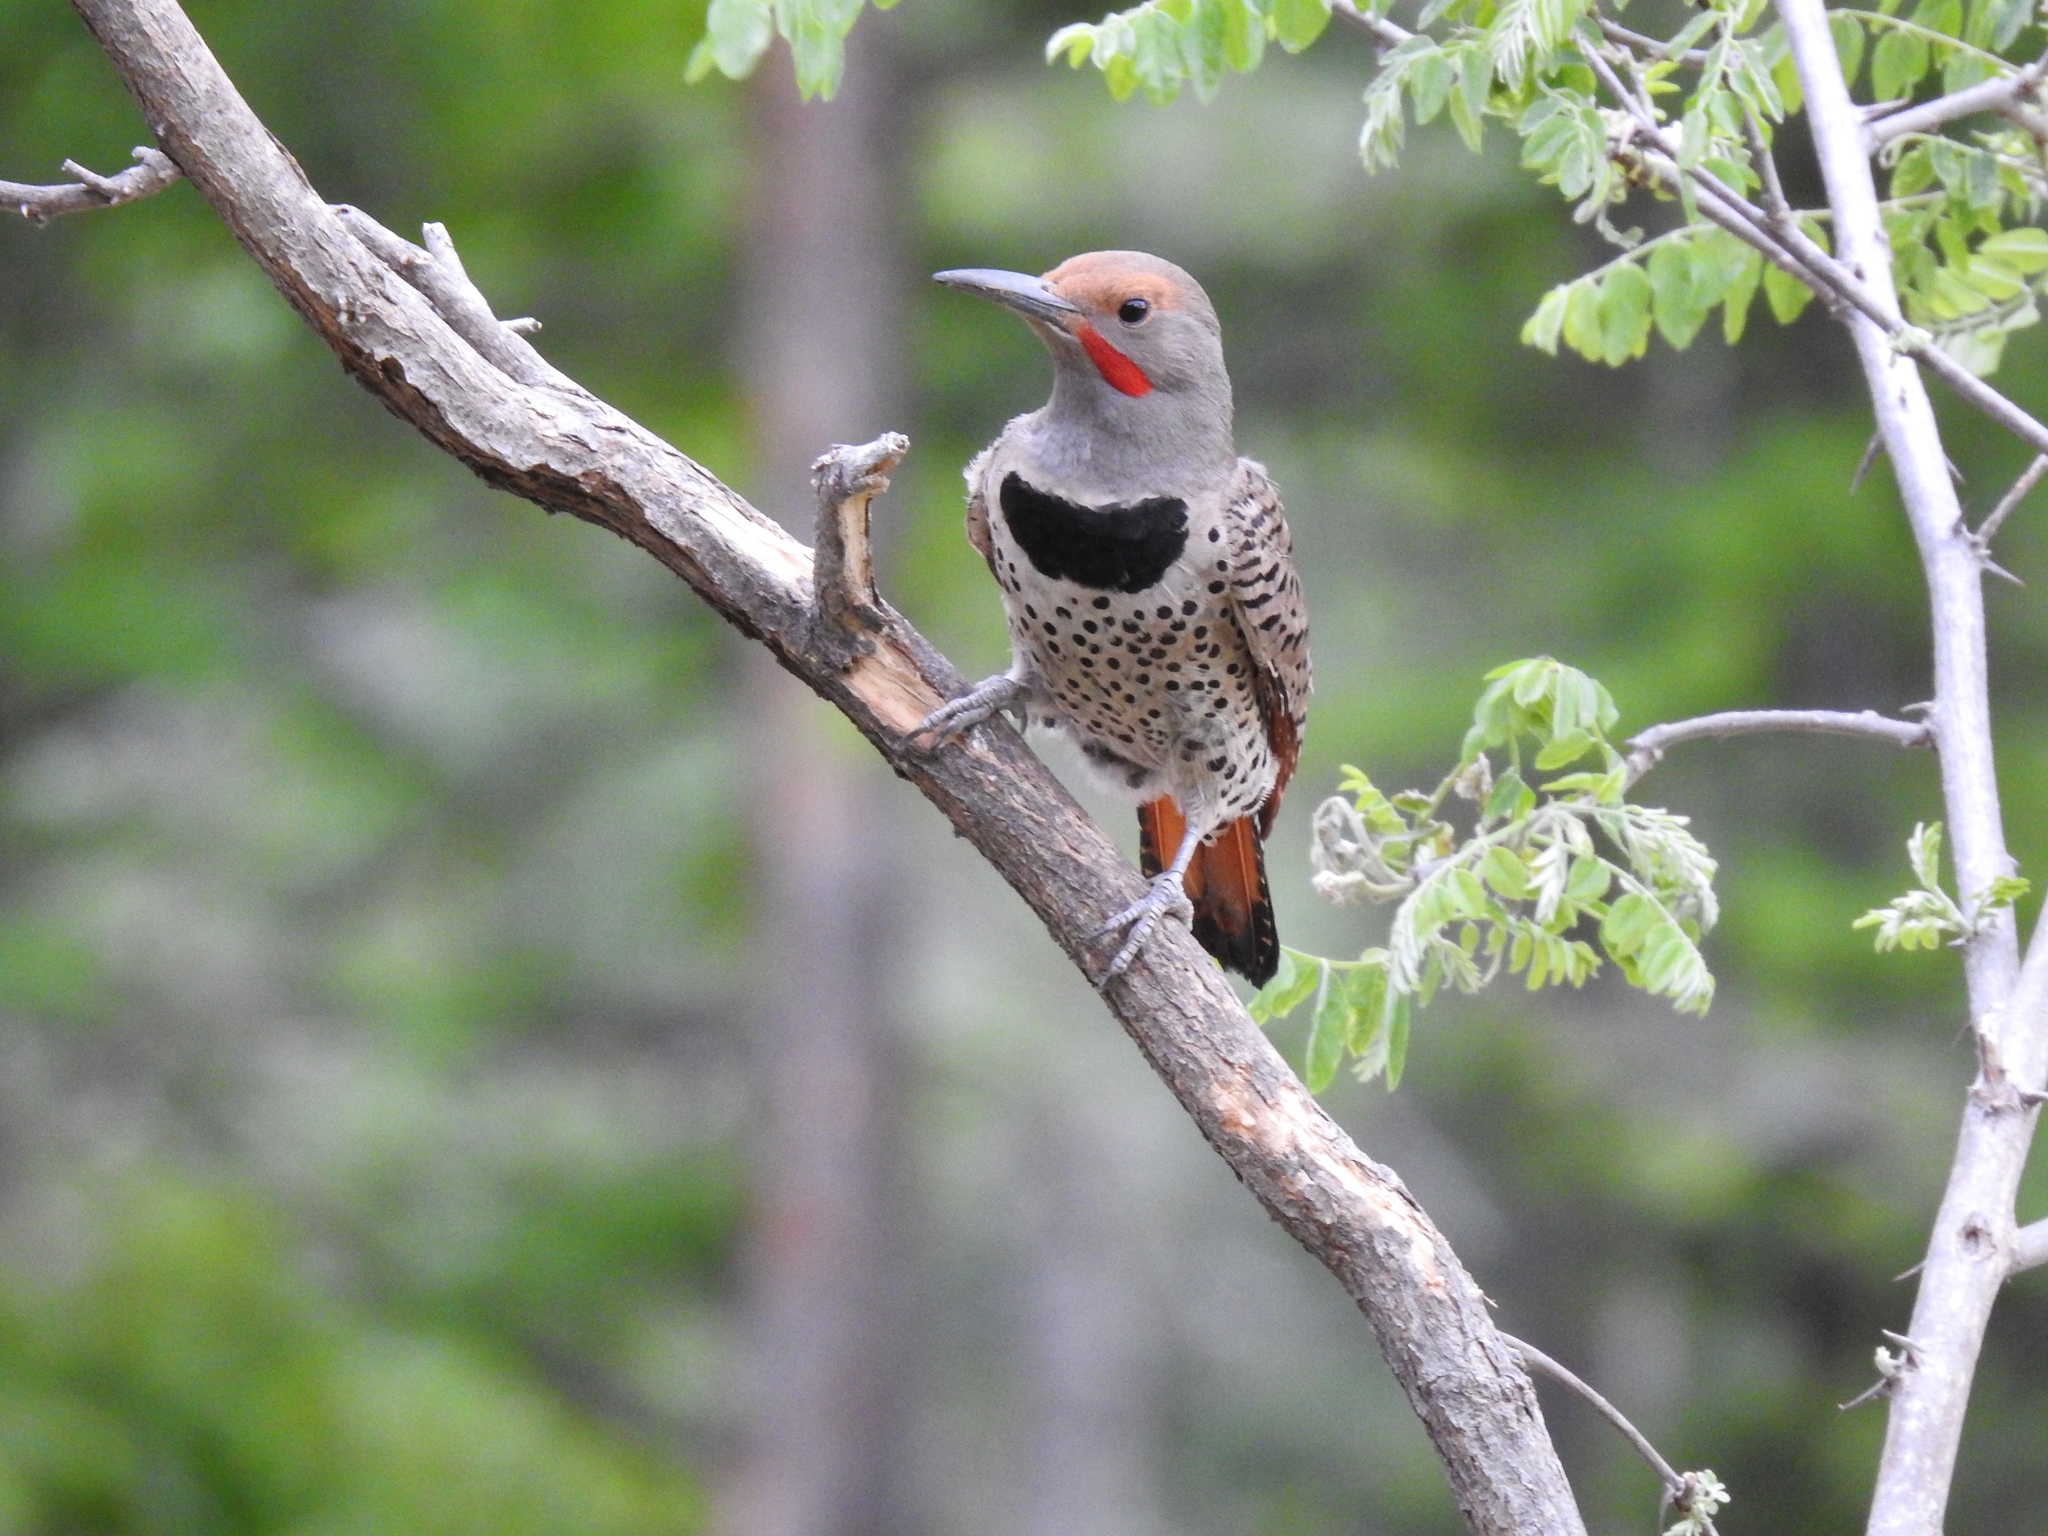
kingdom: Animalia
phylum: Chordata
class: Aves
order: Piciformes
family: Picidae
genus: Colaptes
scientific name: Colaptes auratus
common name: Northern flicker
